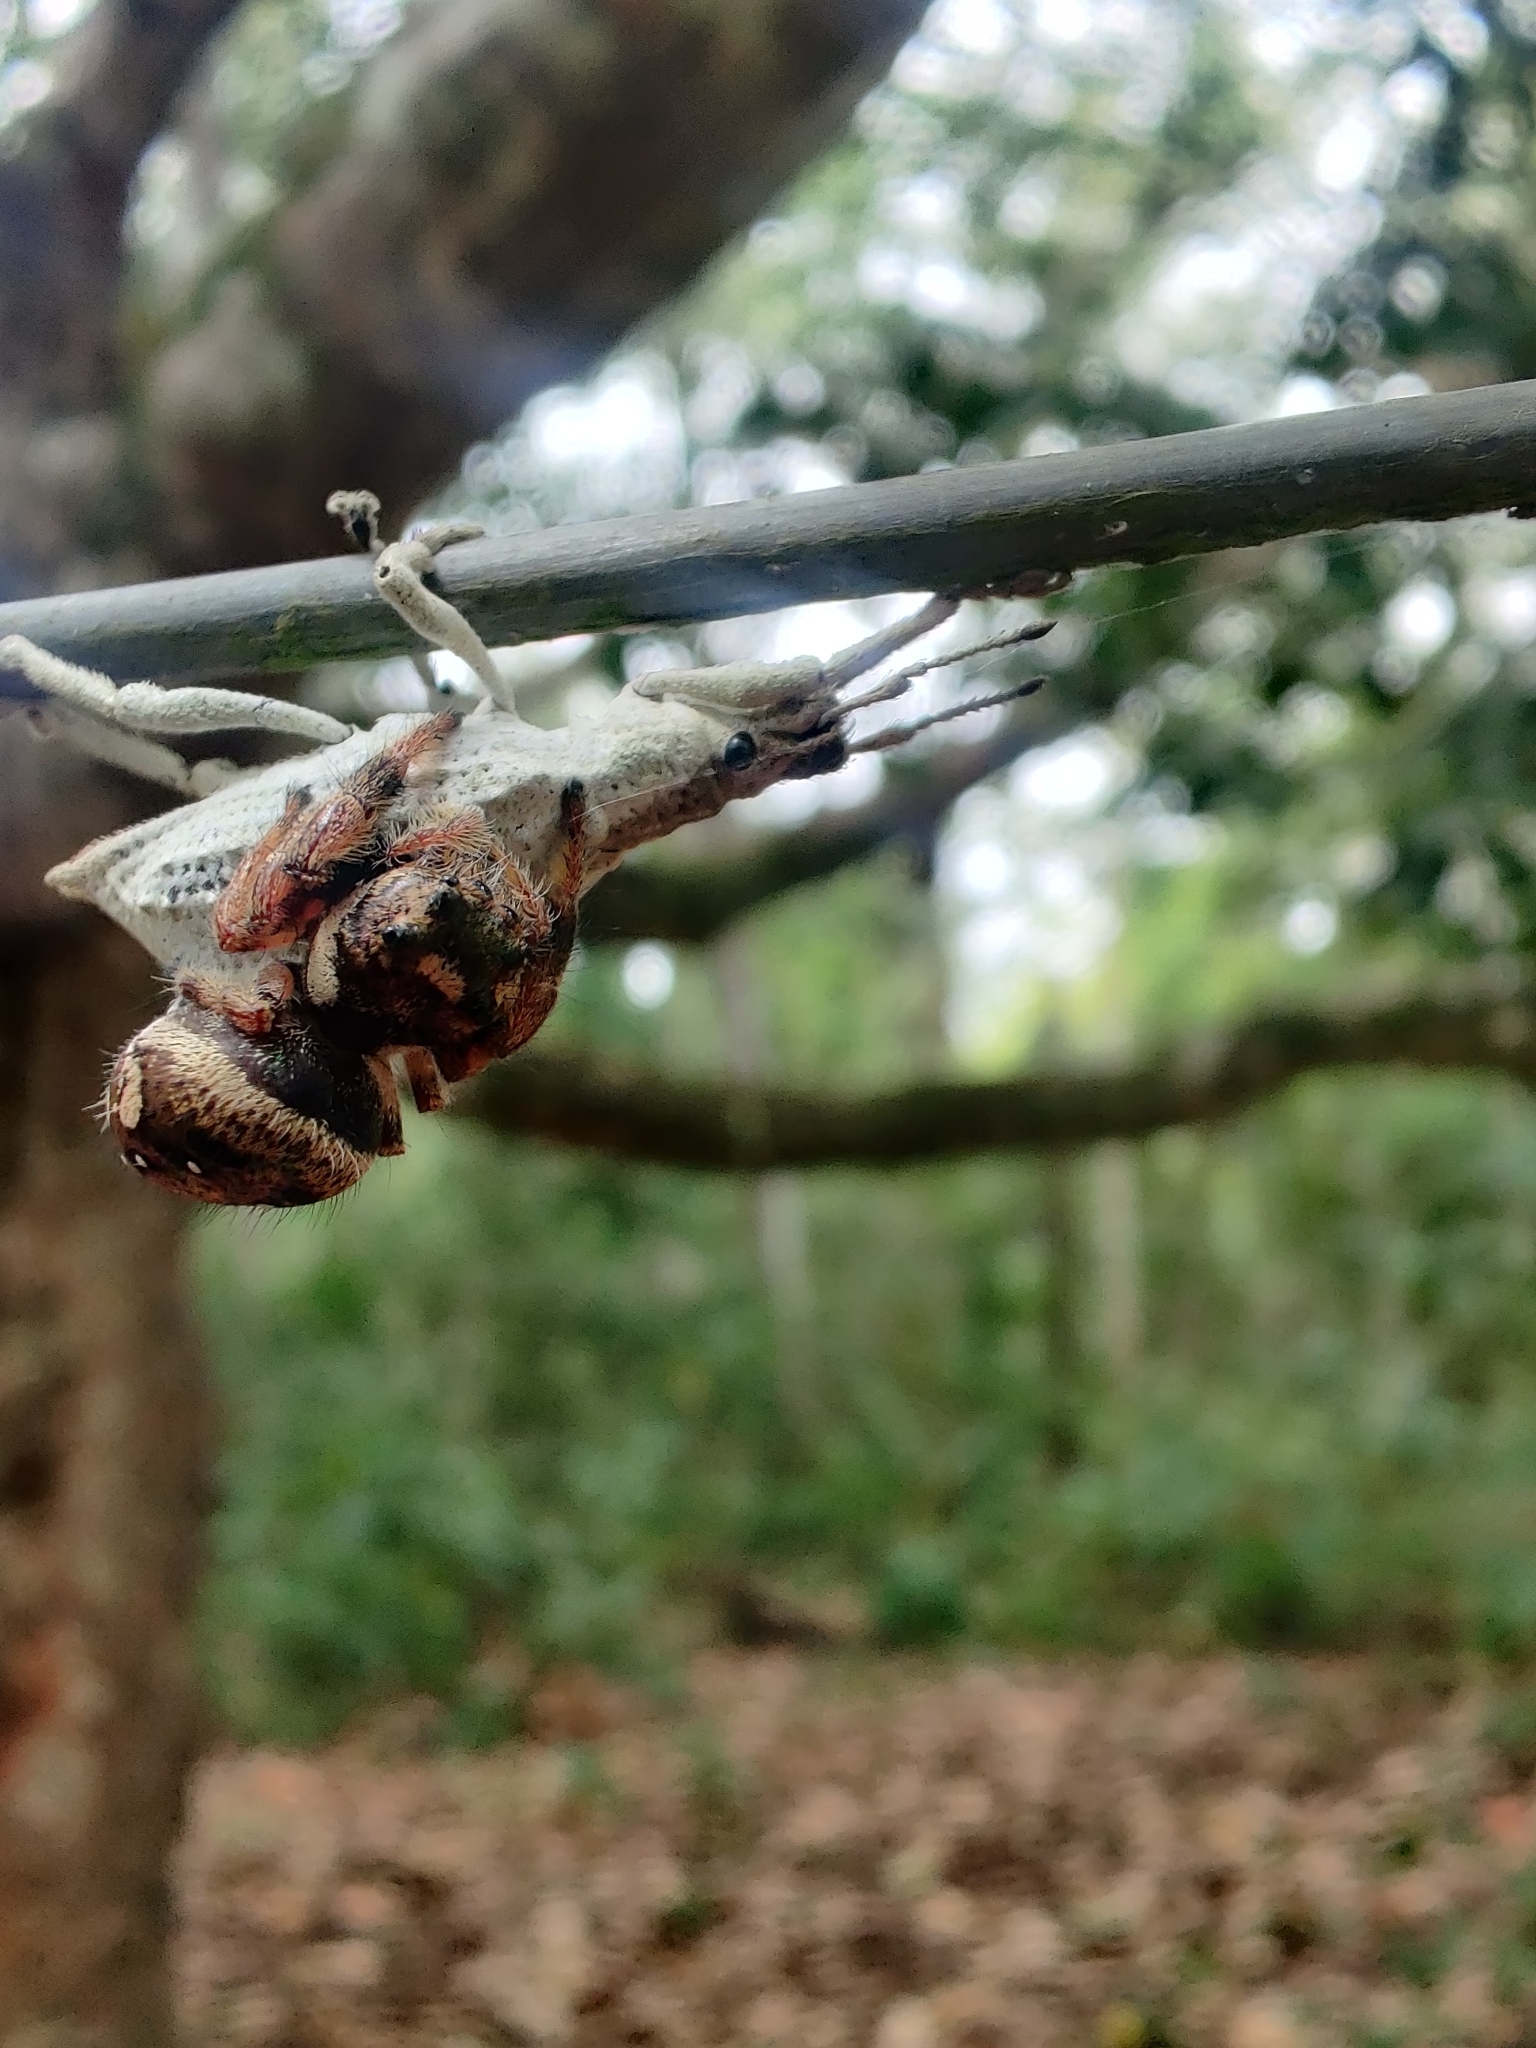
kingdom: Animalia
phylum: Arthropoda
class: Insecta
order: Coleoptera
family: Curculionidae
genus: Compsus
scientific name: Compsus niveus
